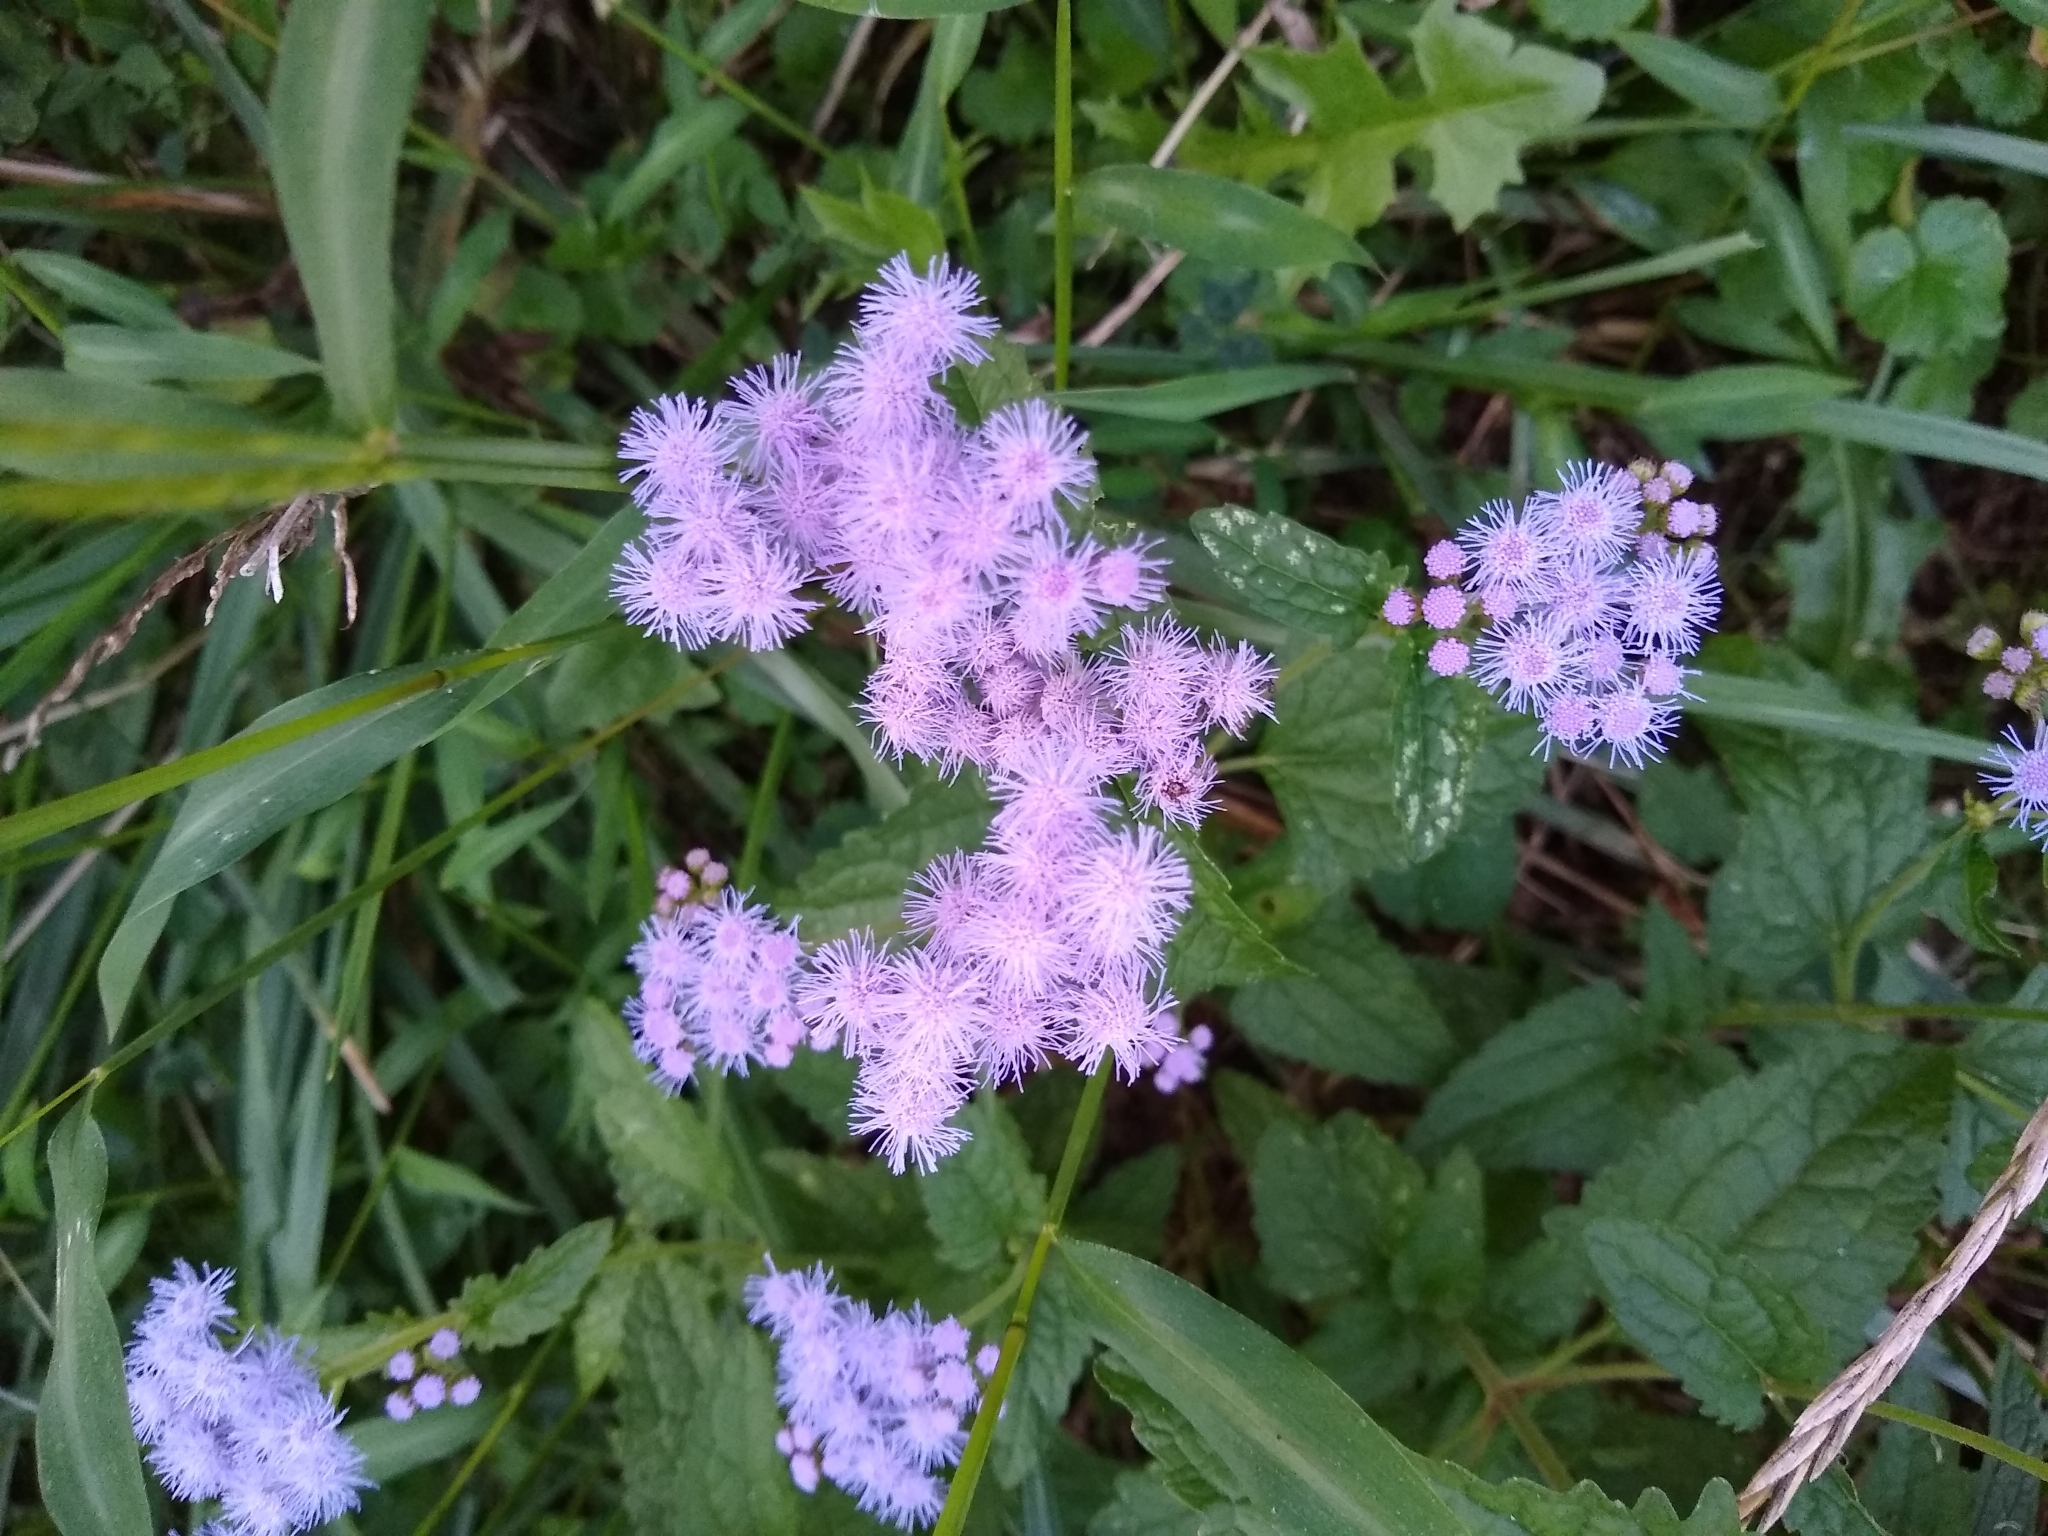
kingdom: Plantae
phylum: Tracheophyta
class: Magnoliopsida
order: Asterales
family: Asteraceae
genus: Conoclinium
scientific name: Conoclinium coelestinum
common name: Blue mistflower
